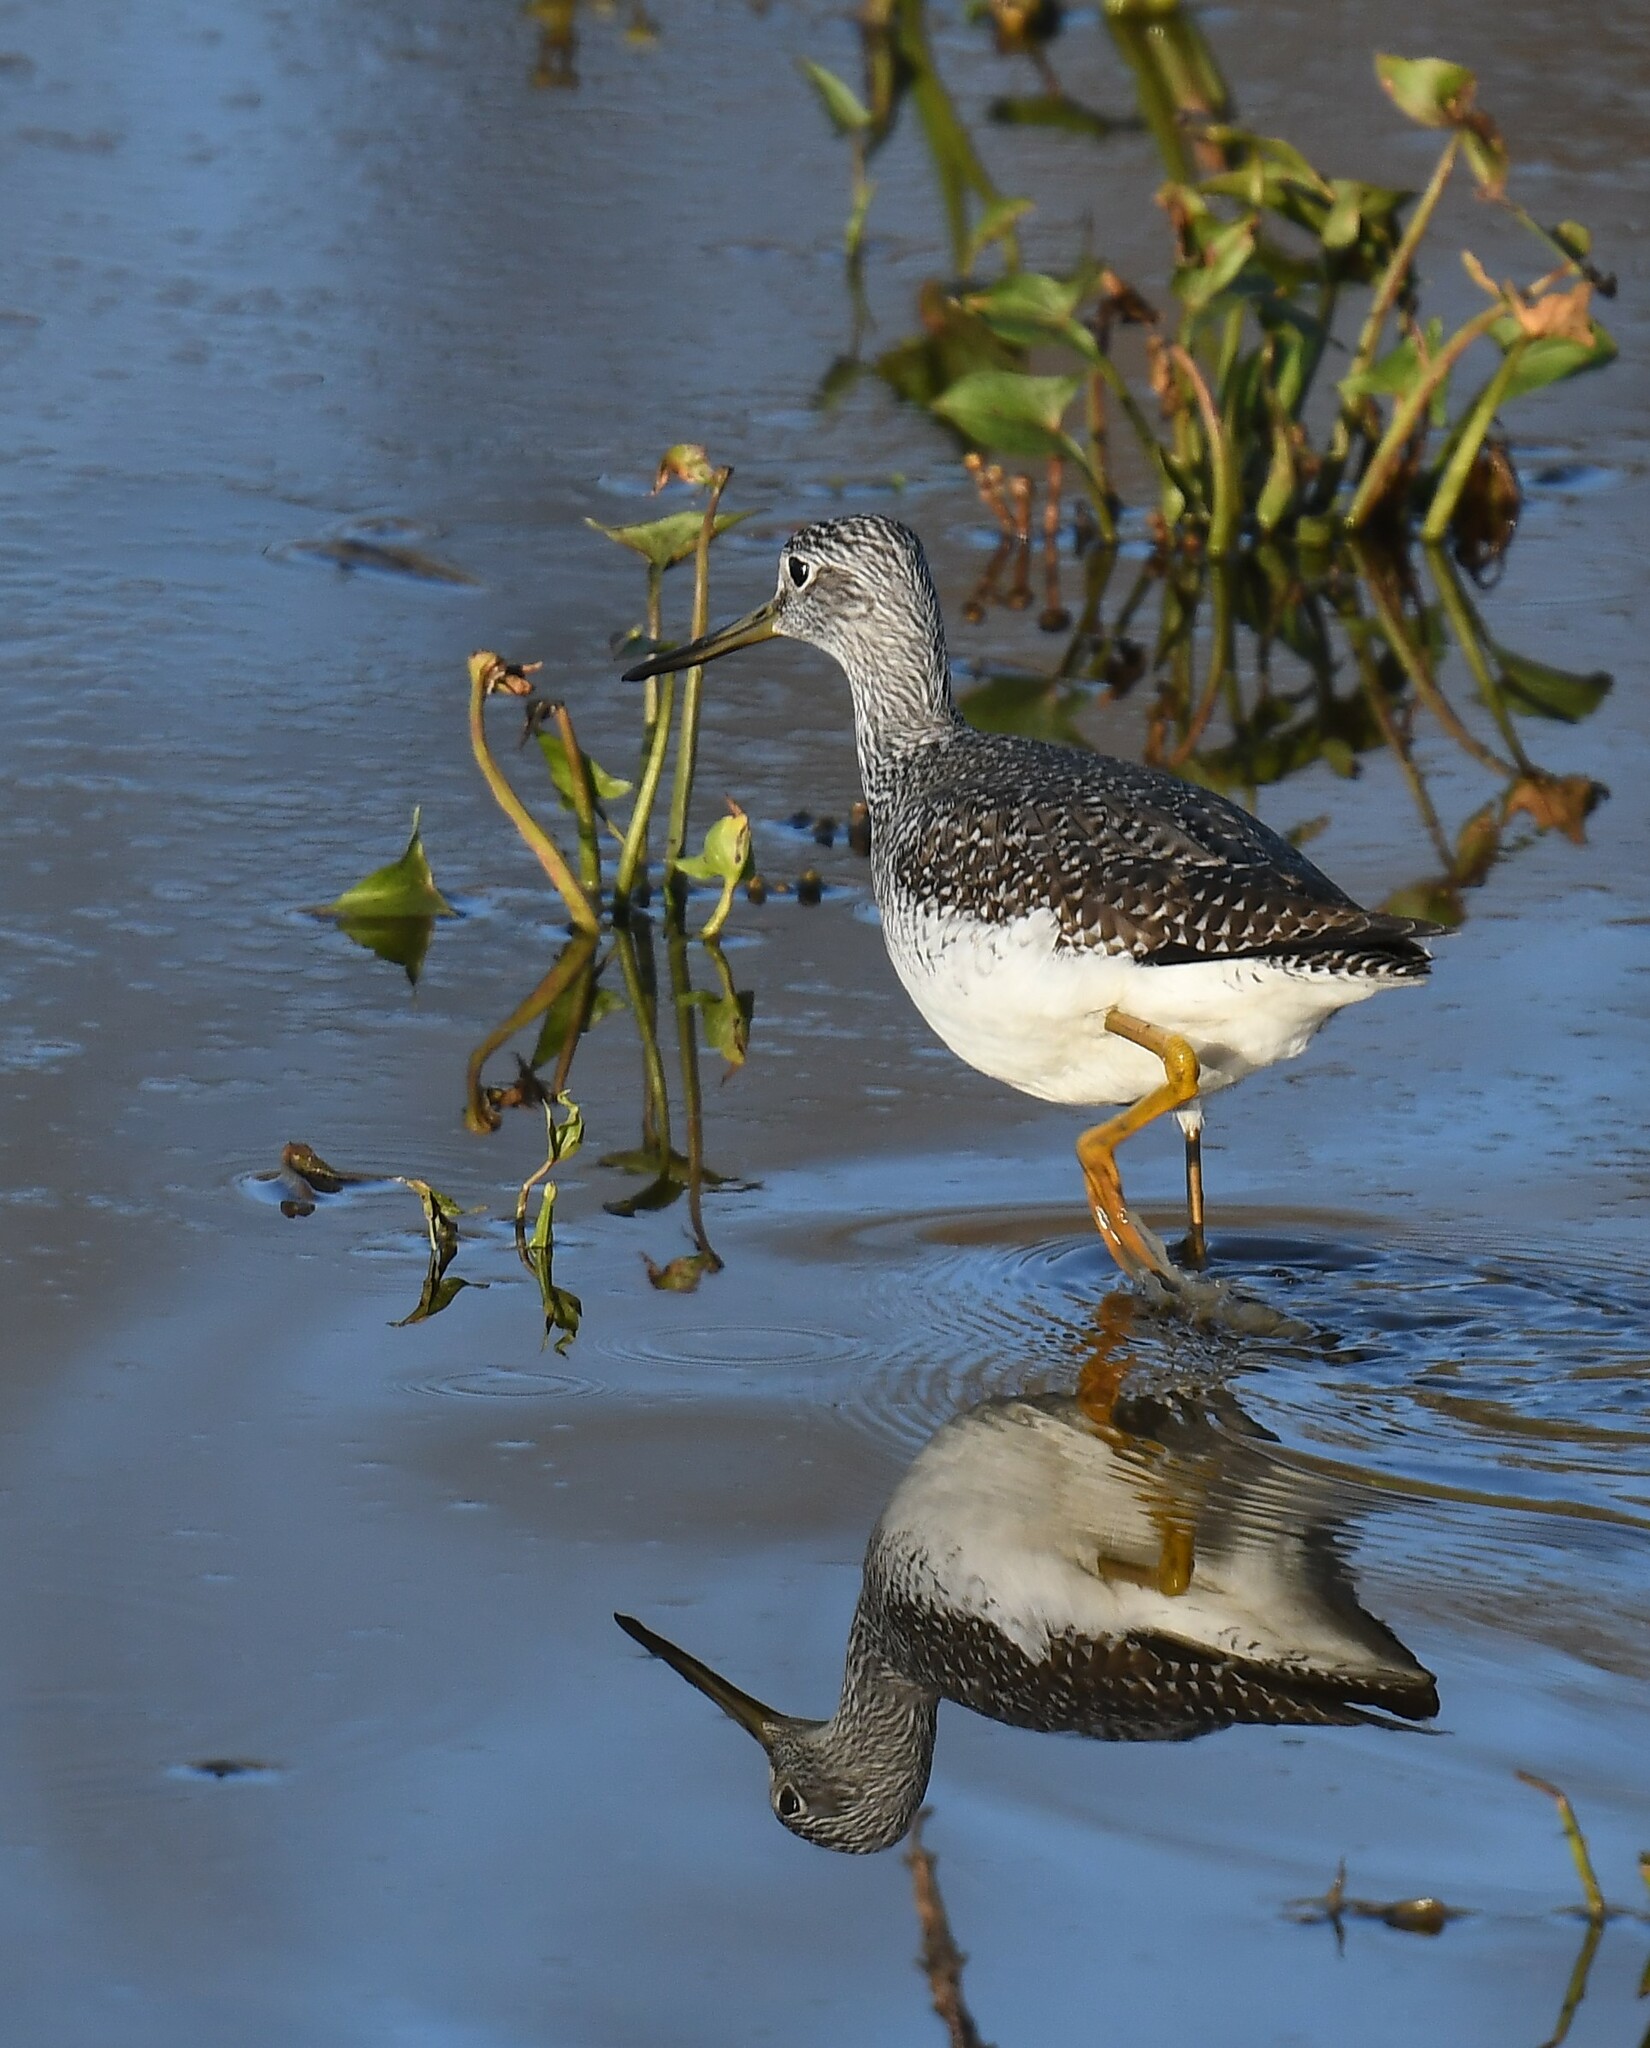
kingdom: Animalia
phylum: Chordata
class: Aves
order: Charadriiformes
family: Scolopacidae
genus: Tringa
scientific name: Tringa melanoleuca
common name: Greater yellowlegs
